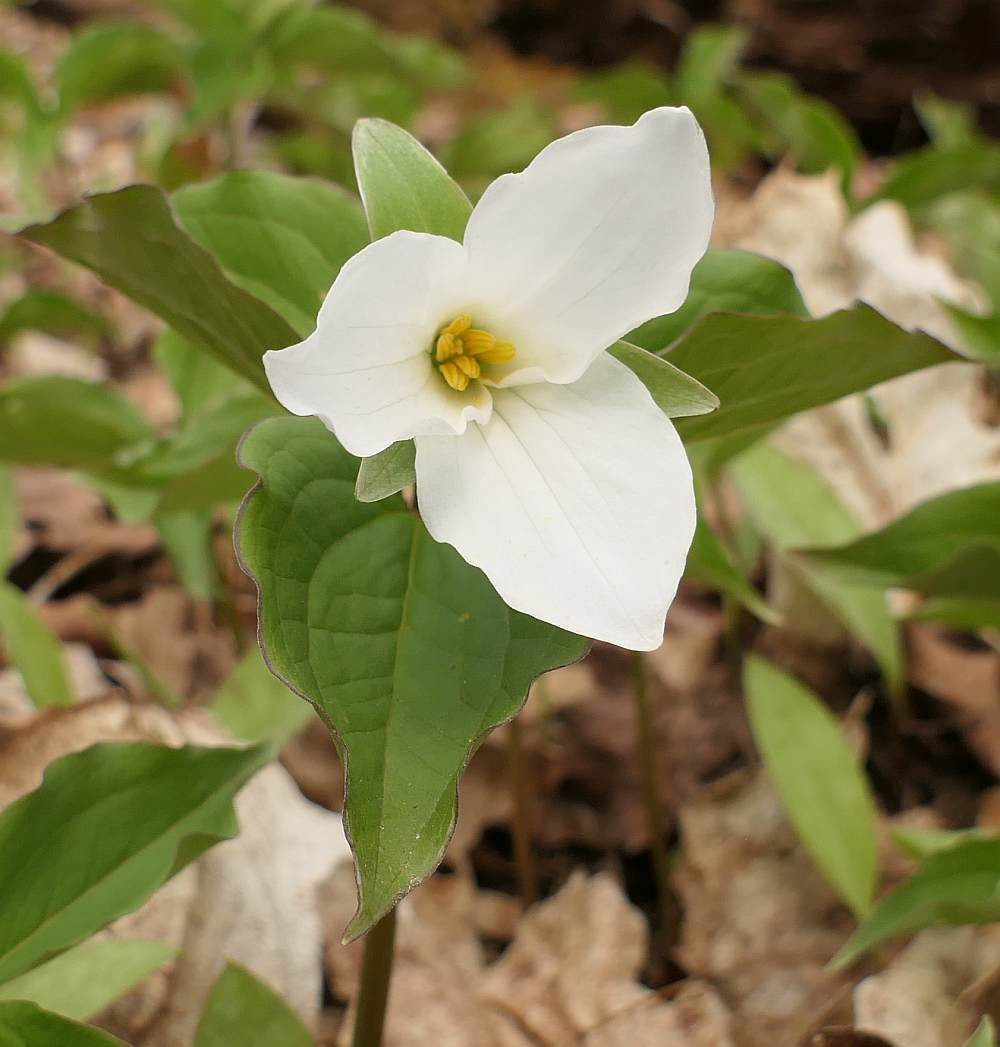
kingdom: Plantae
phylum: Tracheophyta
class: Liliopsida
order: Liliales
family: Melanthiaceae
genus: Trillium
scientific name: Trillium grandiflorum
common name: Great white trillium
